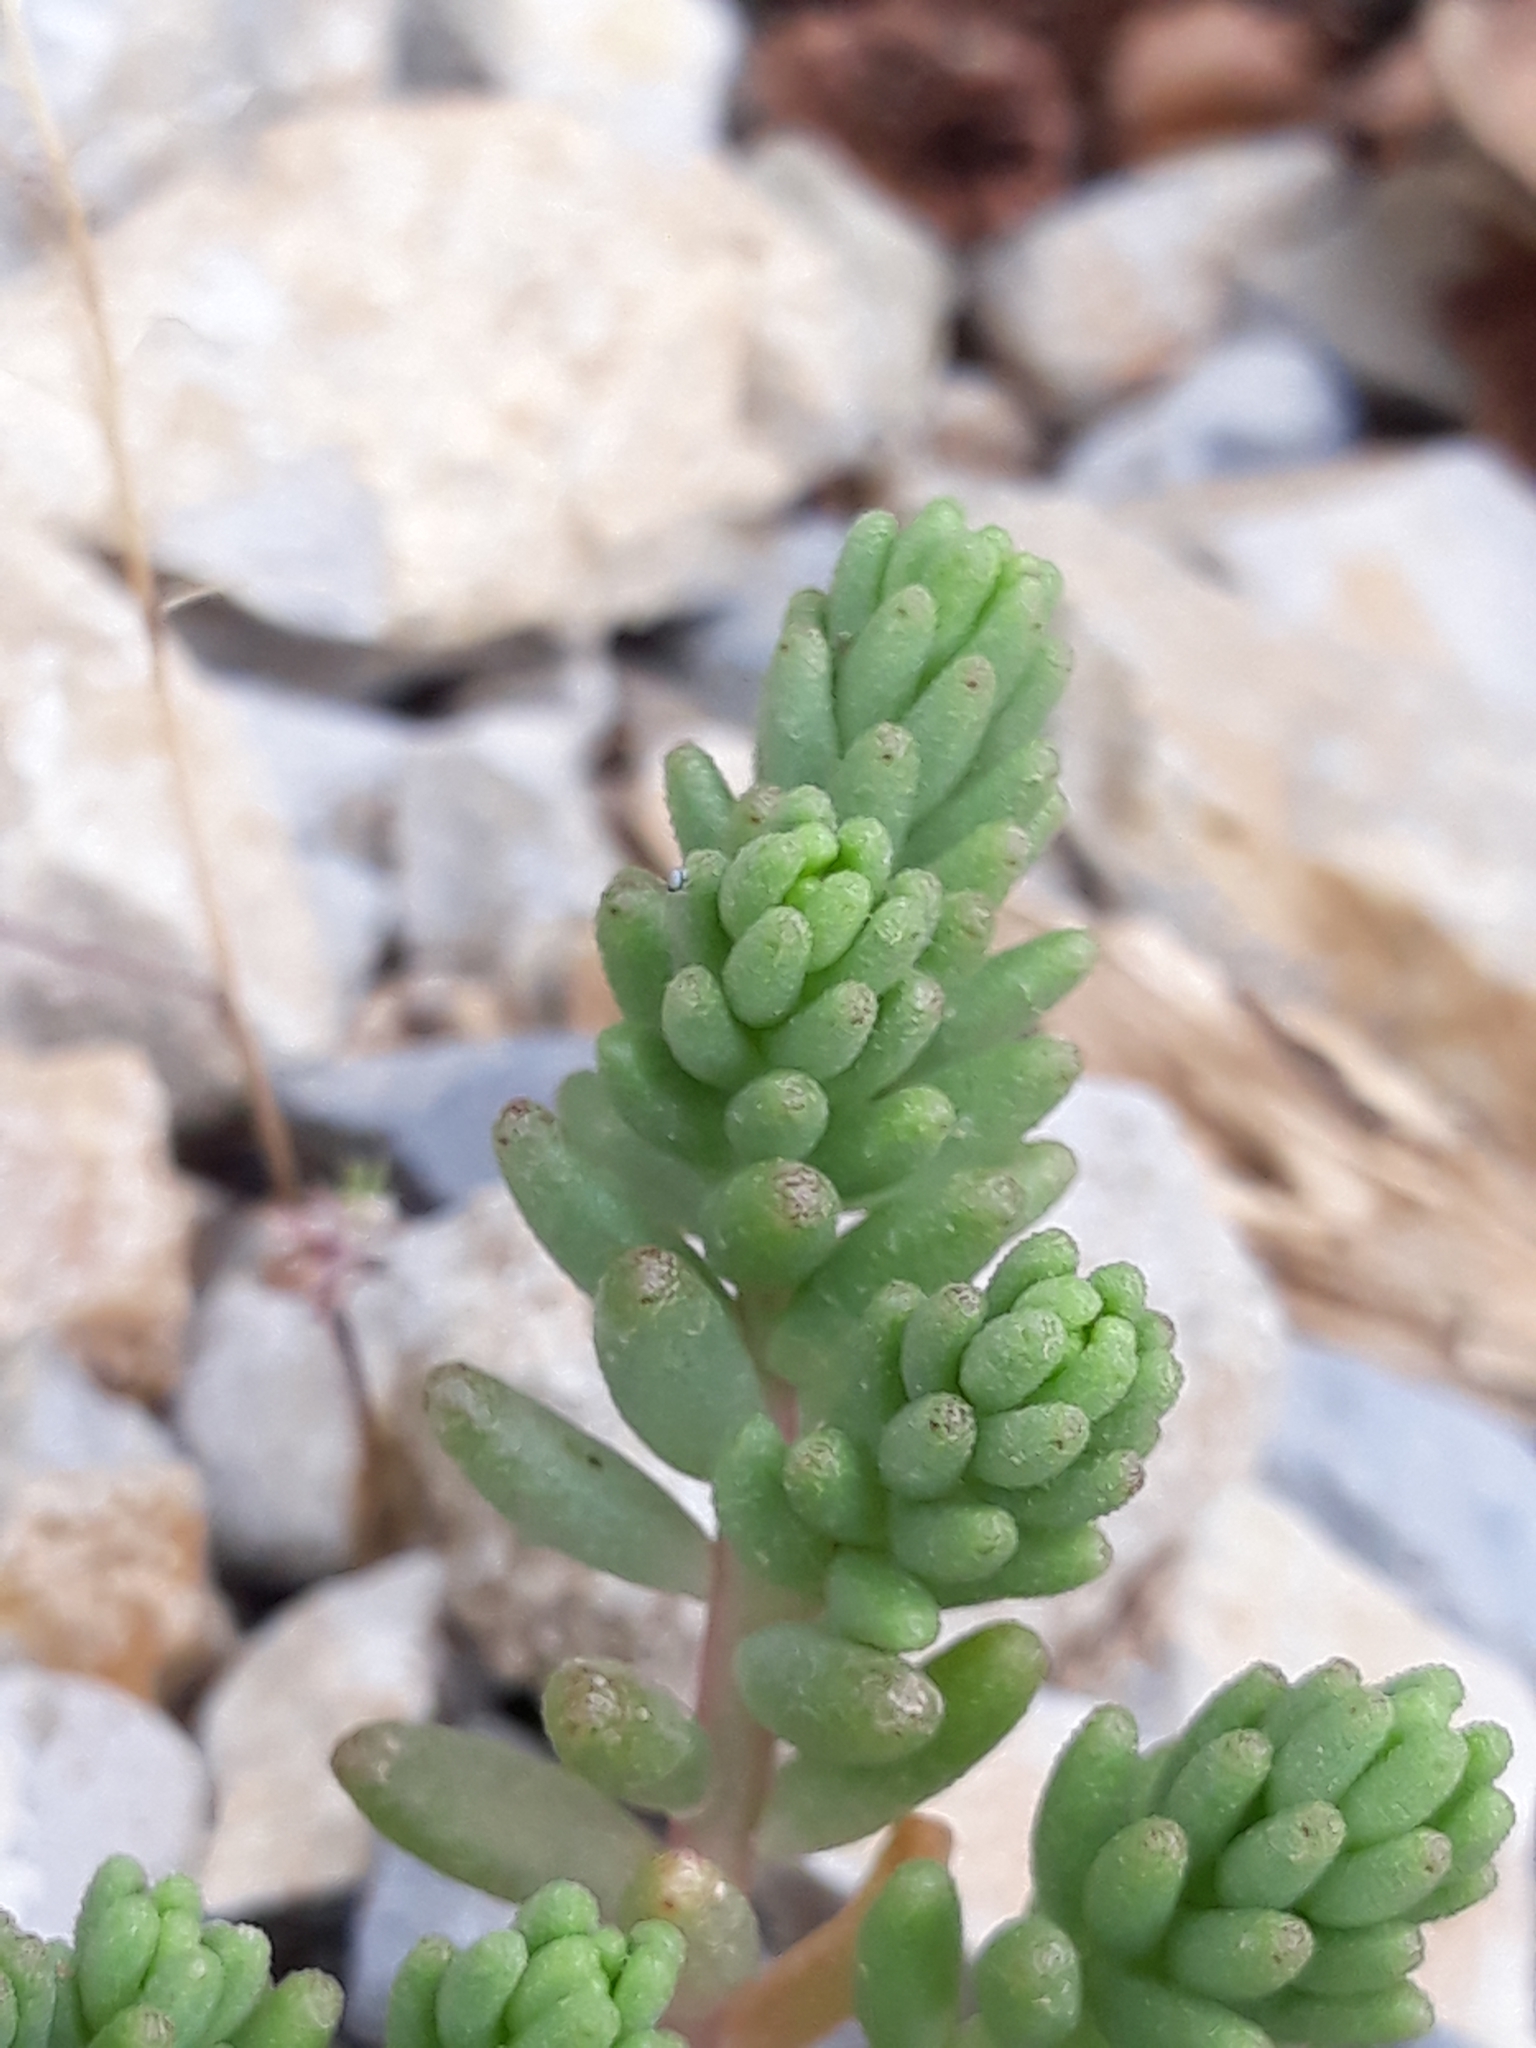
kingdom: Plantae
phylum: Tracheophyta
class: Magnoliopsida
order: Saxifragales
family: Crassulaceae
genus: Sedum
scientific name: Sedum album
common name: White stonecrop
